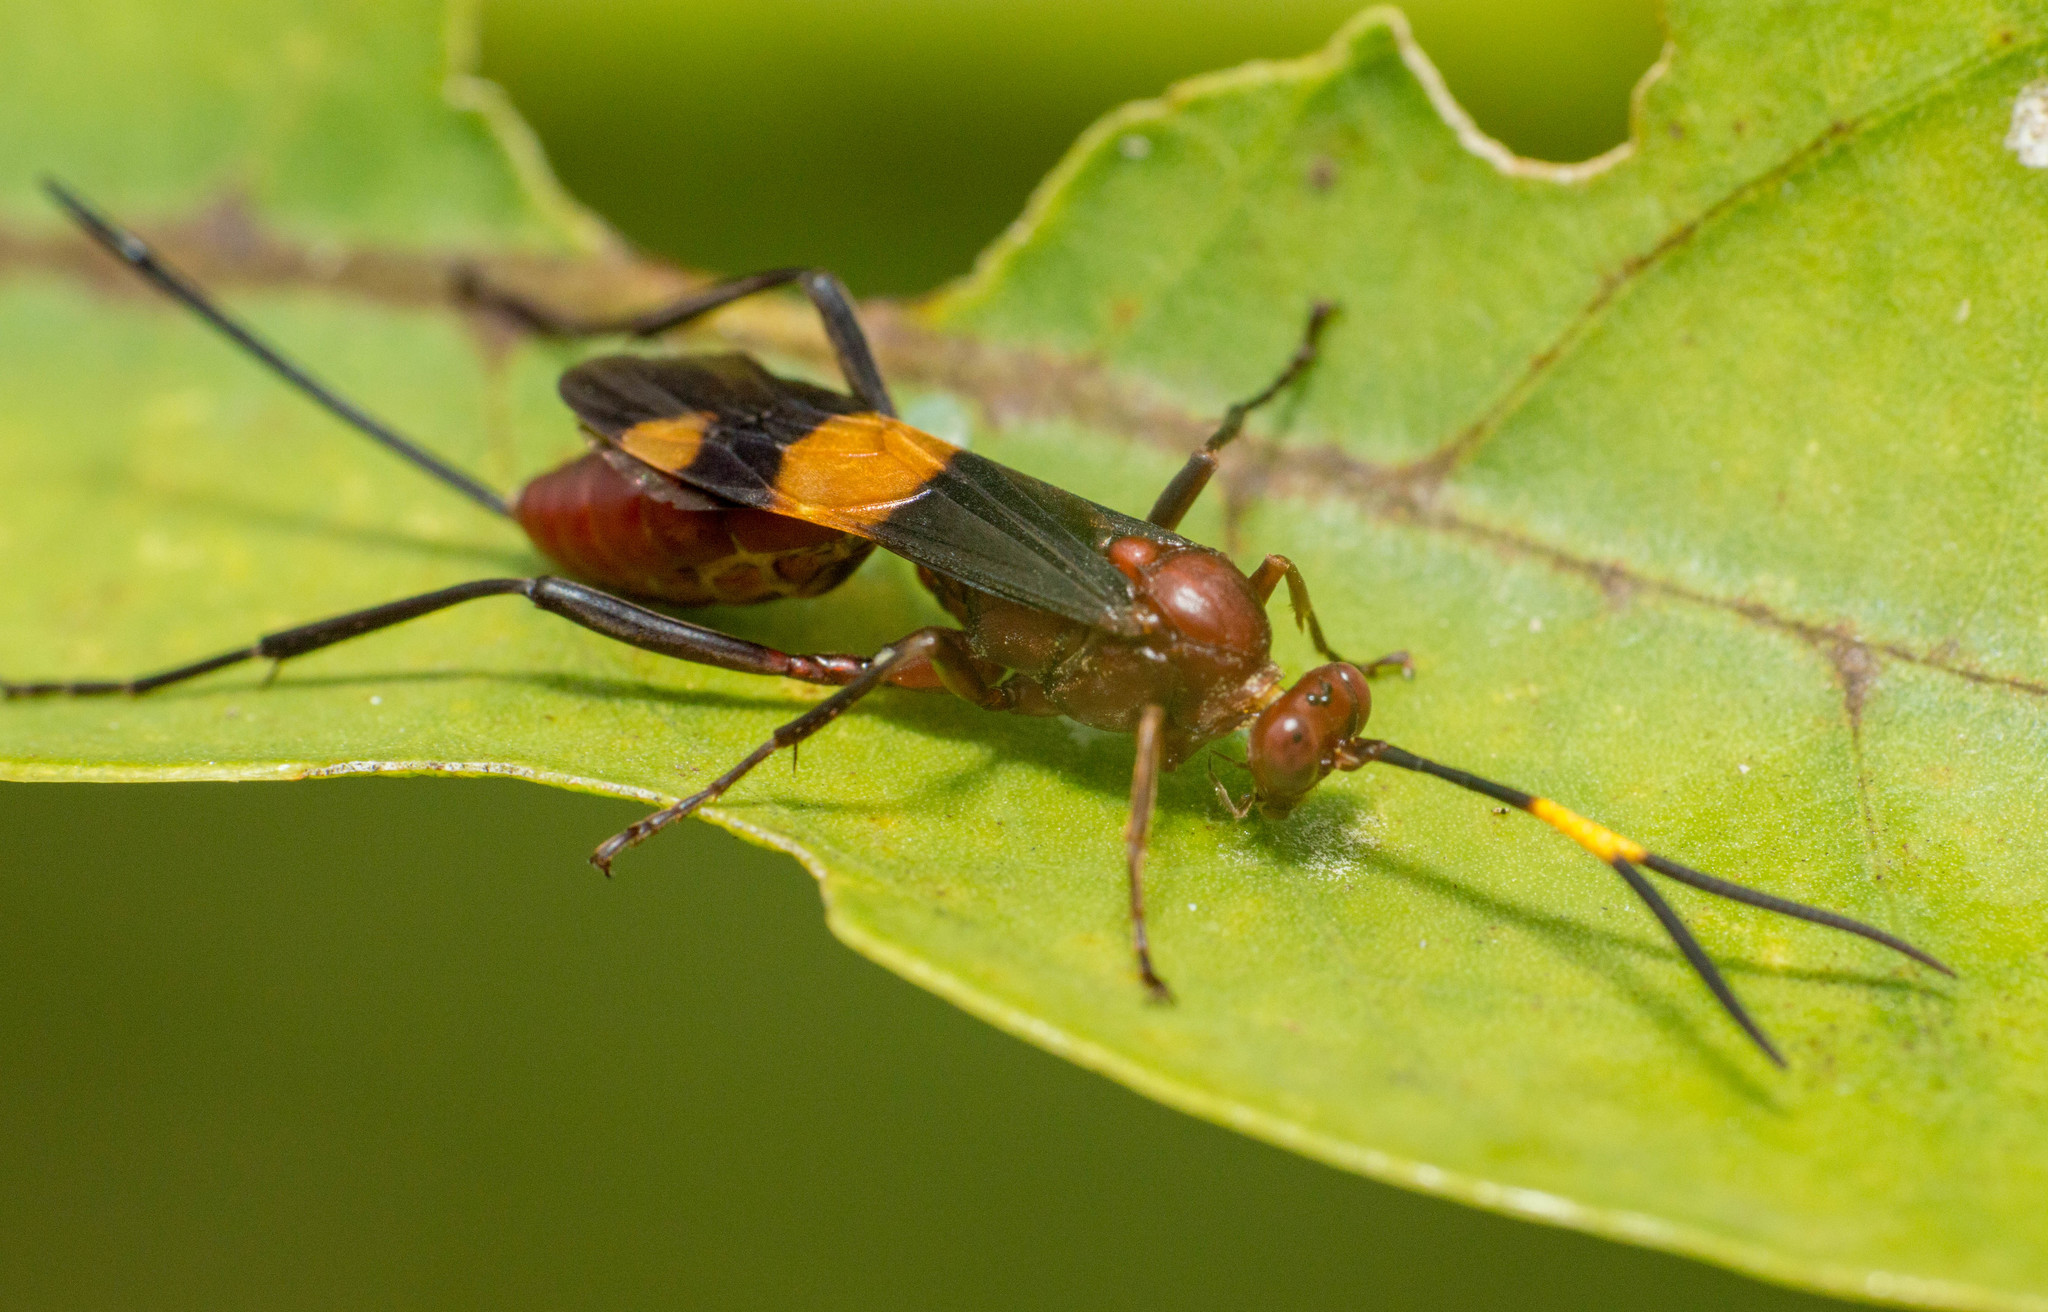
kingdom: Animalia
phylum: Arthropoda
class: Insecta
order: Hymenoptera
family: Ichneumonidae
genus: Compsocryptus
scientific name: Compsocryptus melanostigma
